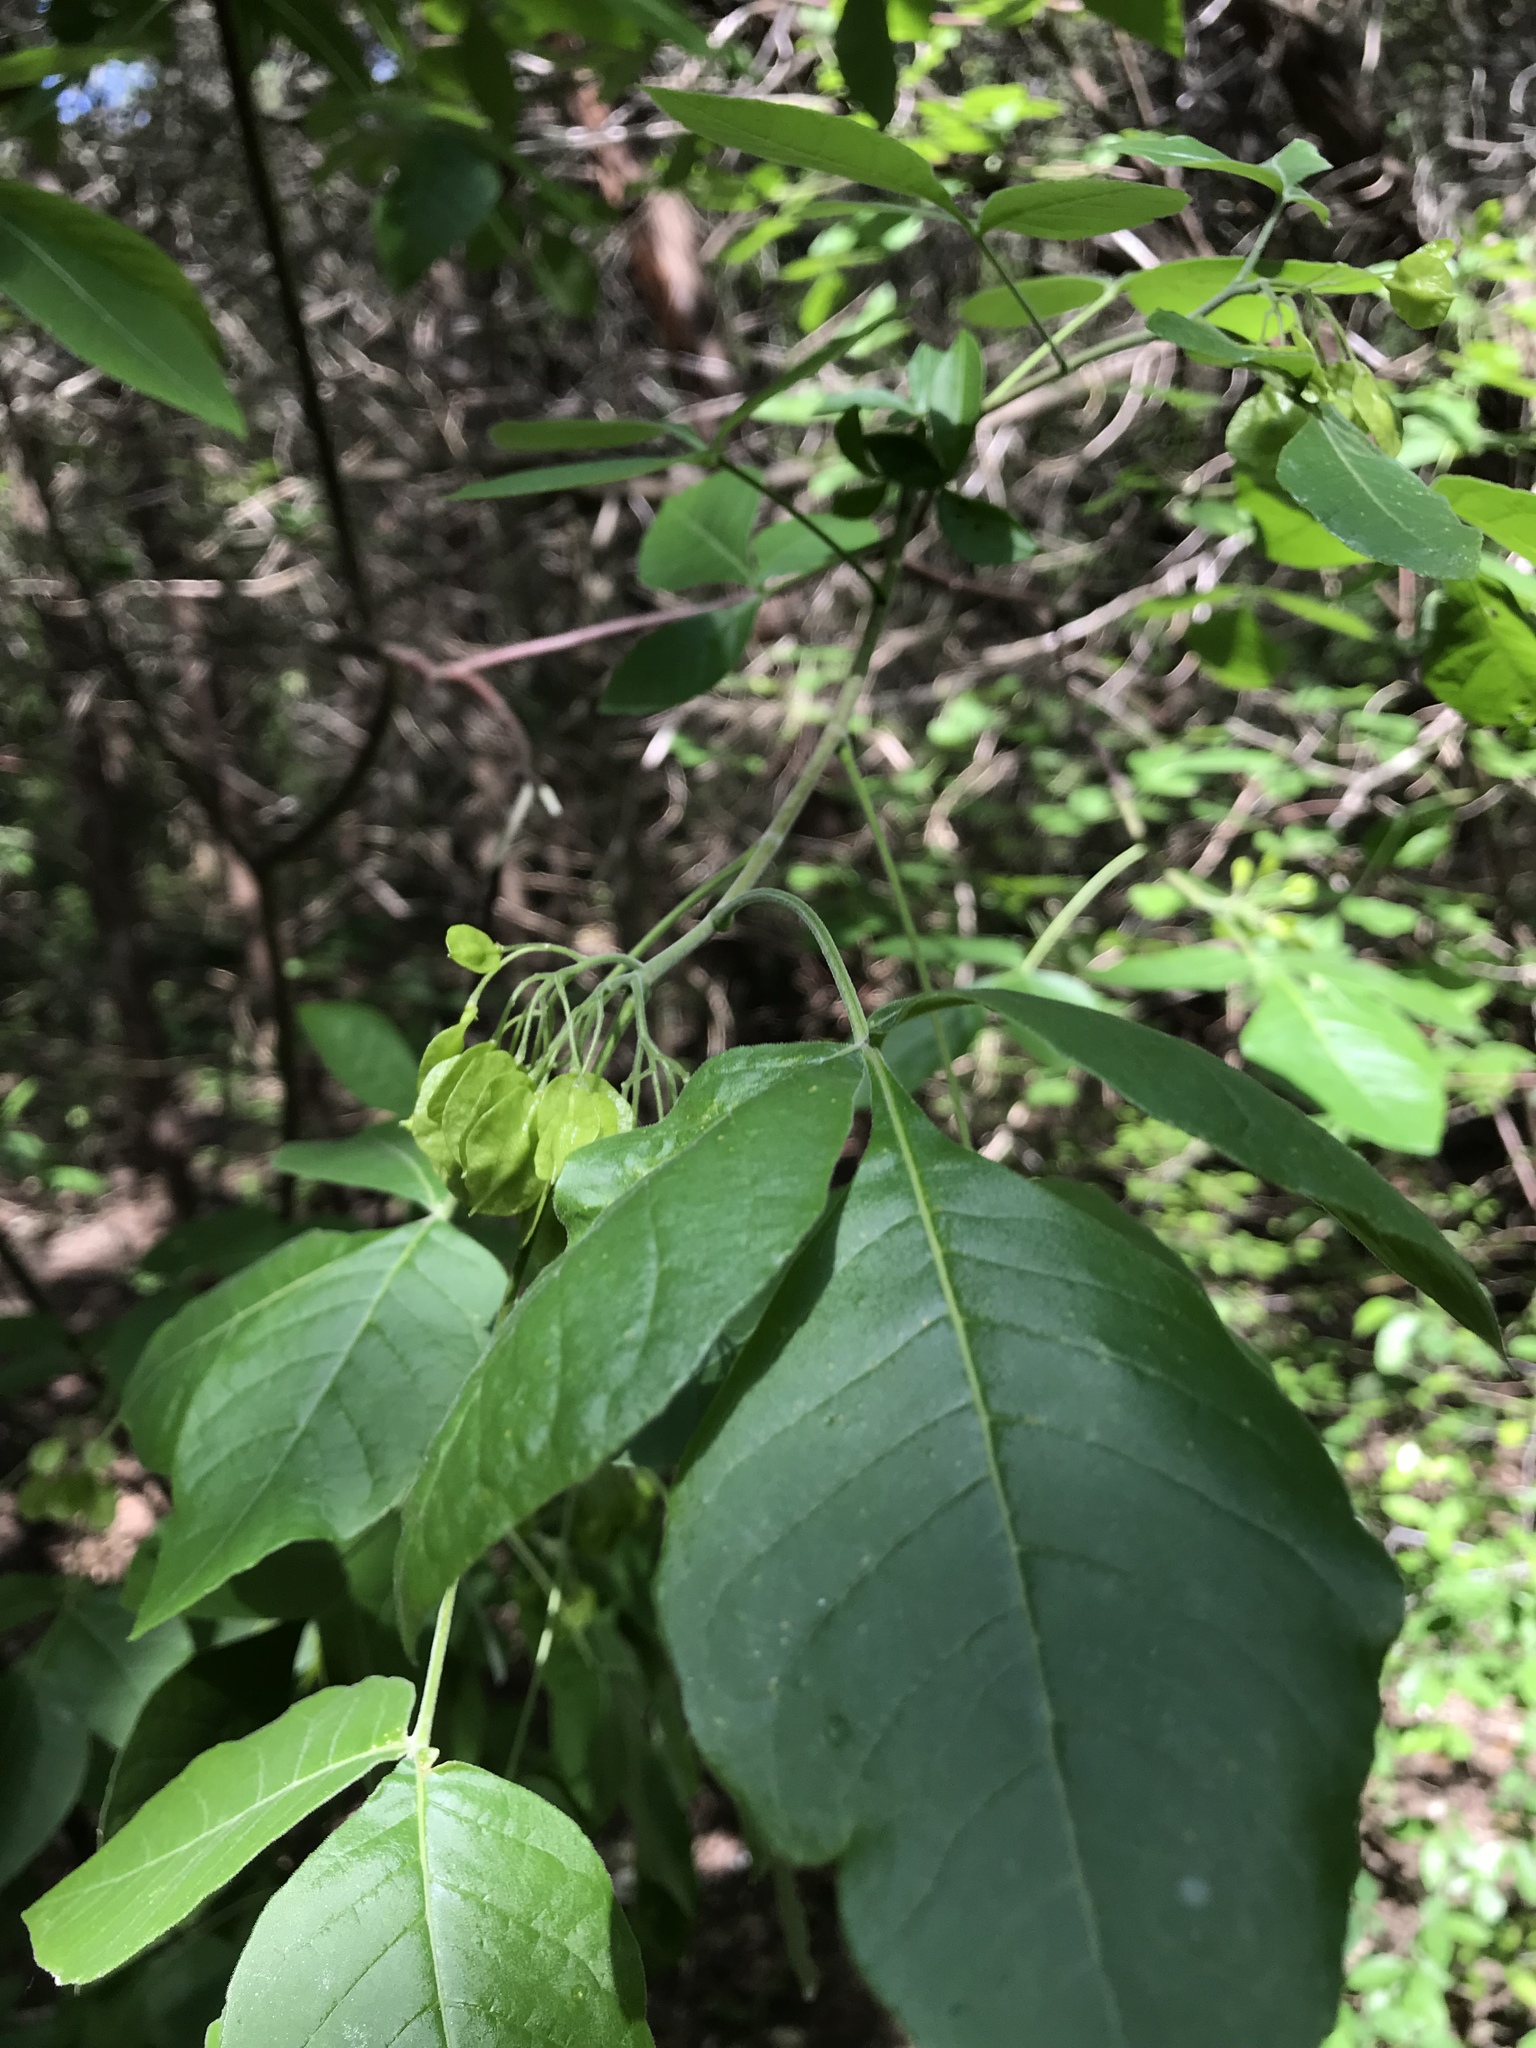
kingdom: Plantae
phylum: Tracheophyta
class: Magnoliopsida
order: Sapindales
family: Rutaceae
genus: Ptelea
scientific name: Ptelea trifoliata
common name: Common hop-tree
